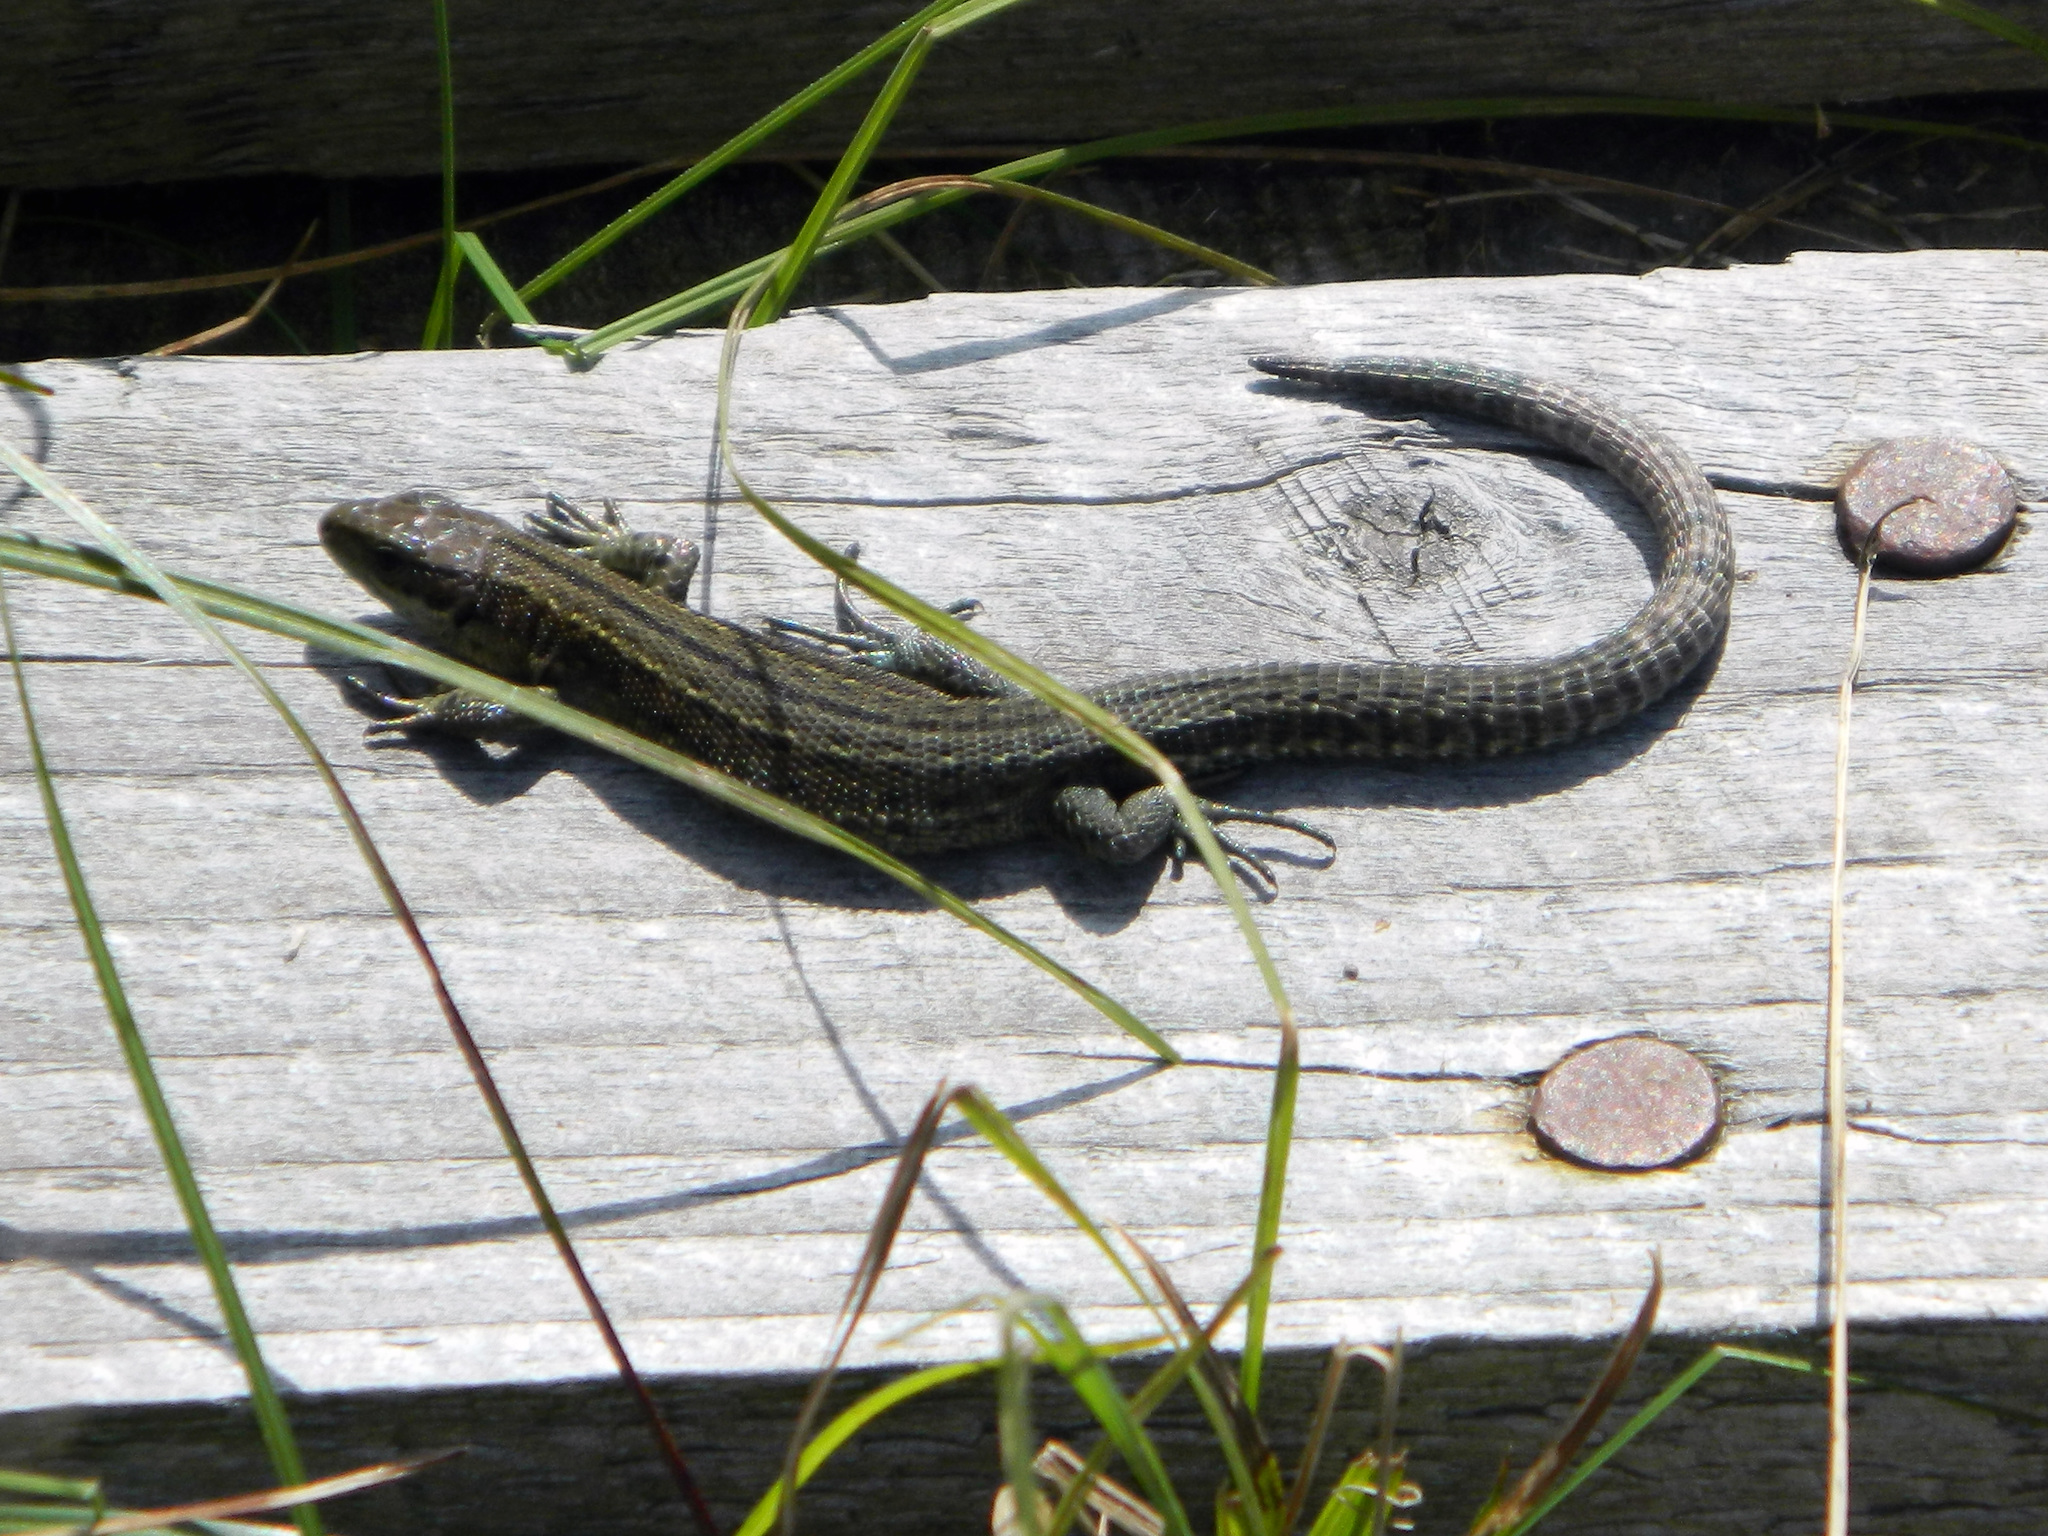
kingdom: Animalia
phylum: Chordata
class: Squamata
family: Lacertidae
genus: Zootoca
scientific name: Zootoca vivipara
